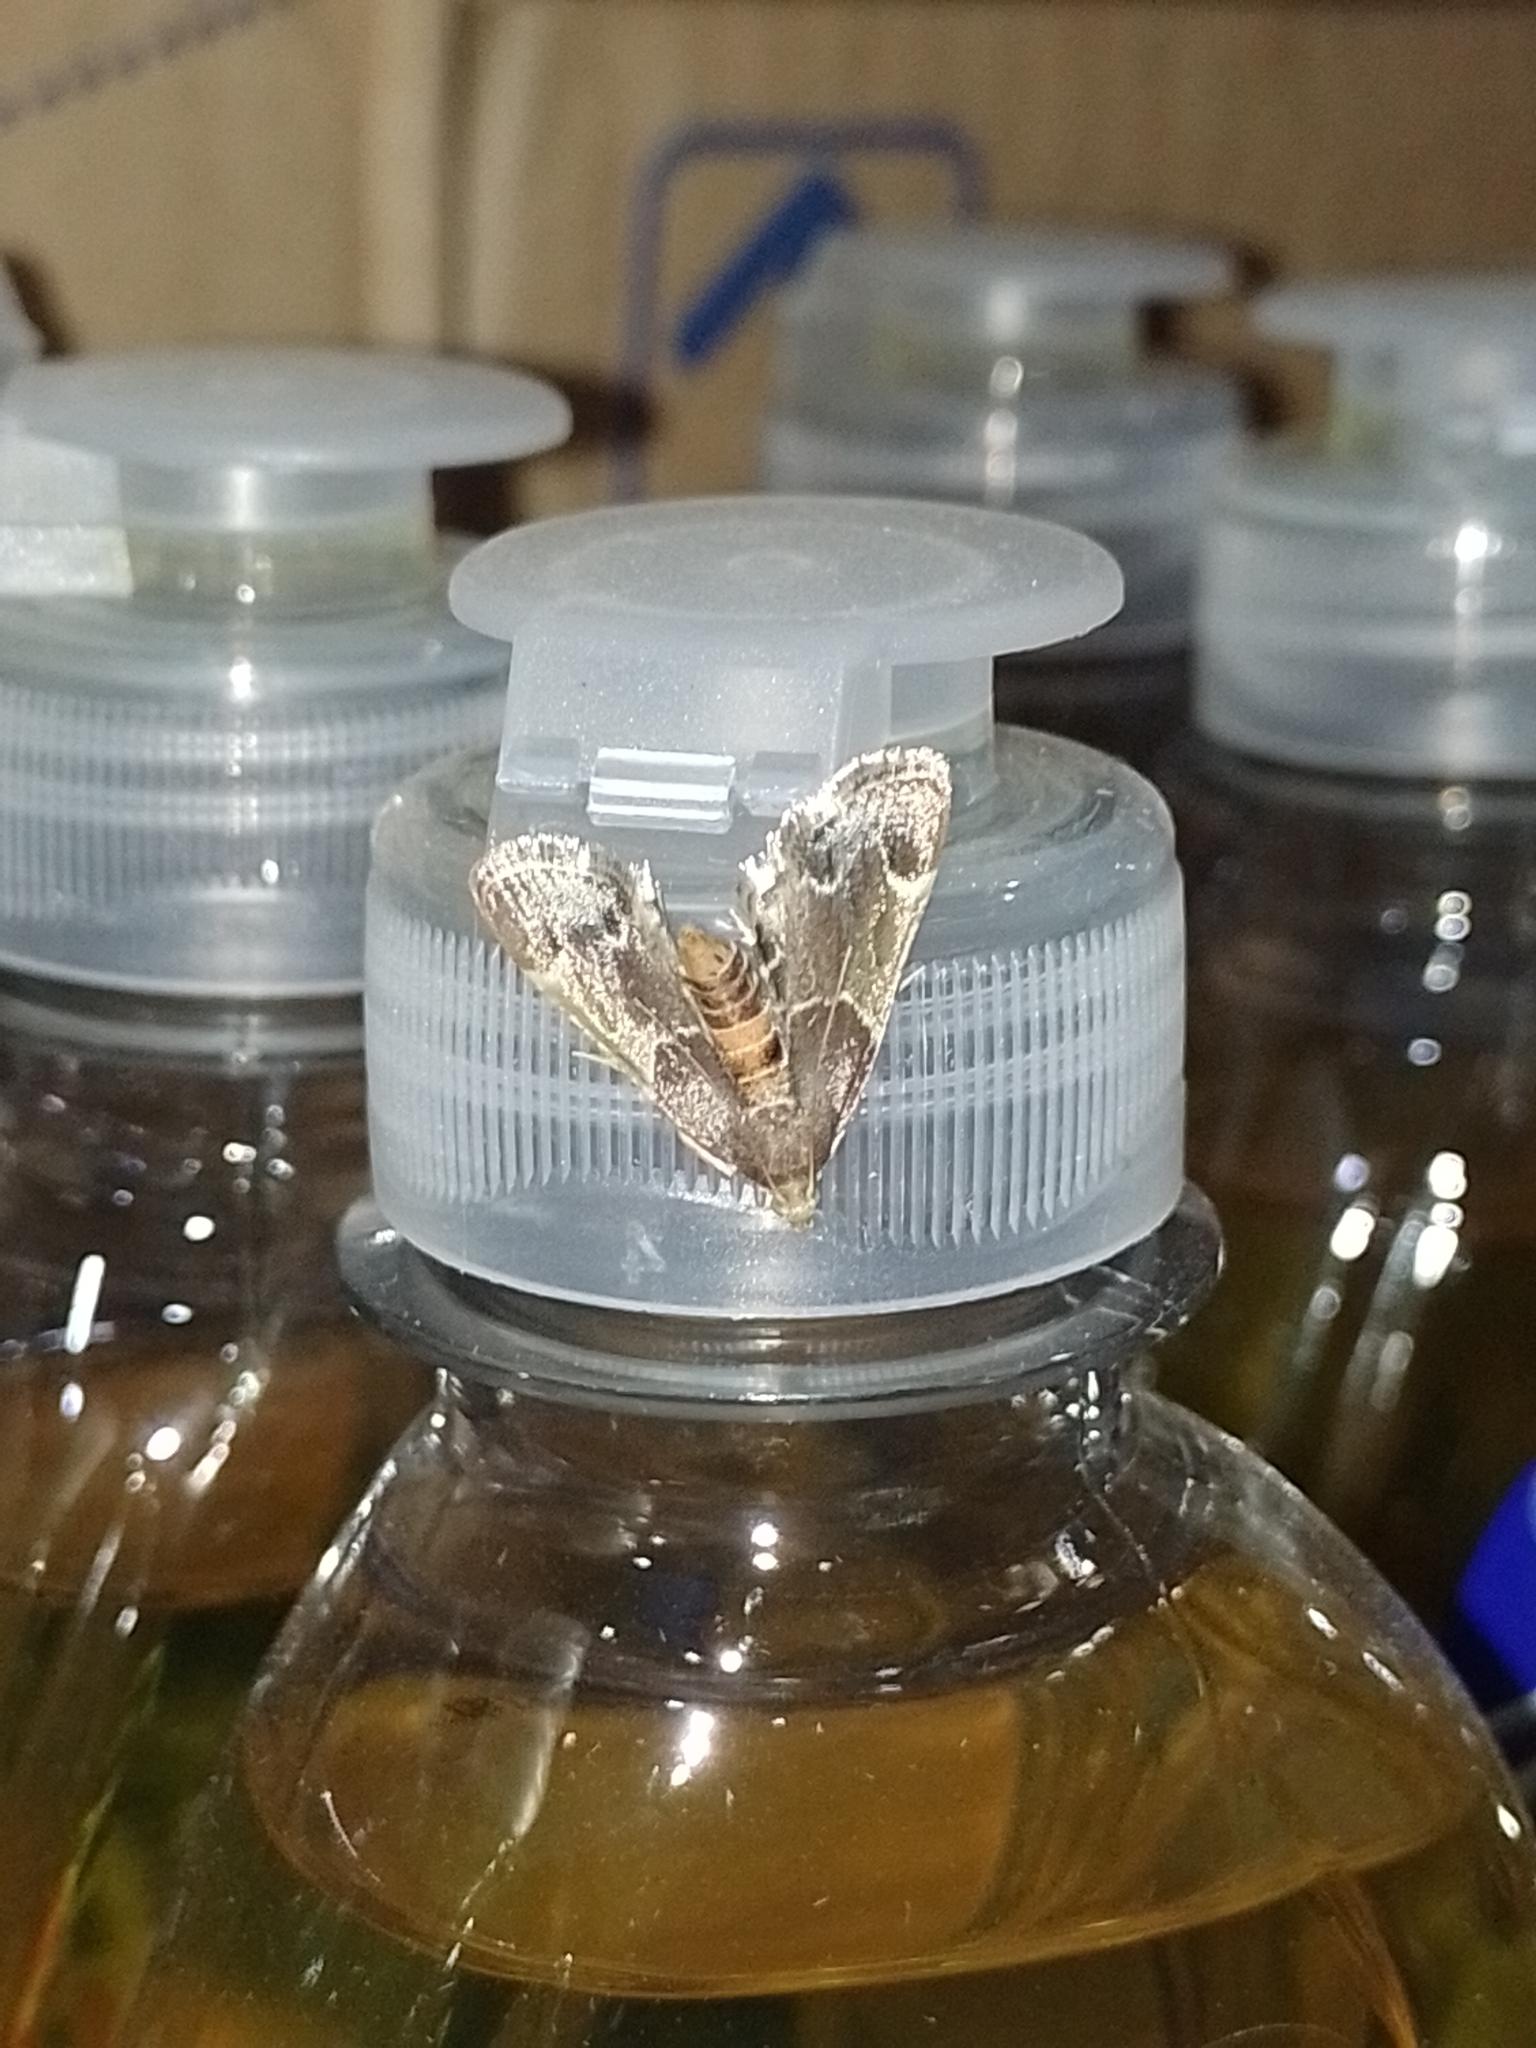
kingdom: Animalia
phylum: Arthropoda
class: Insecta
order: Lepidoptera
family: Pyralidae
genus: Pyralis
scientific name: Pyralis farinalis
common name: Meal moth
